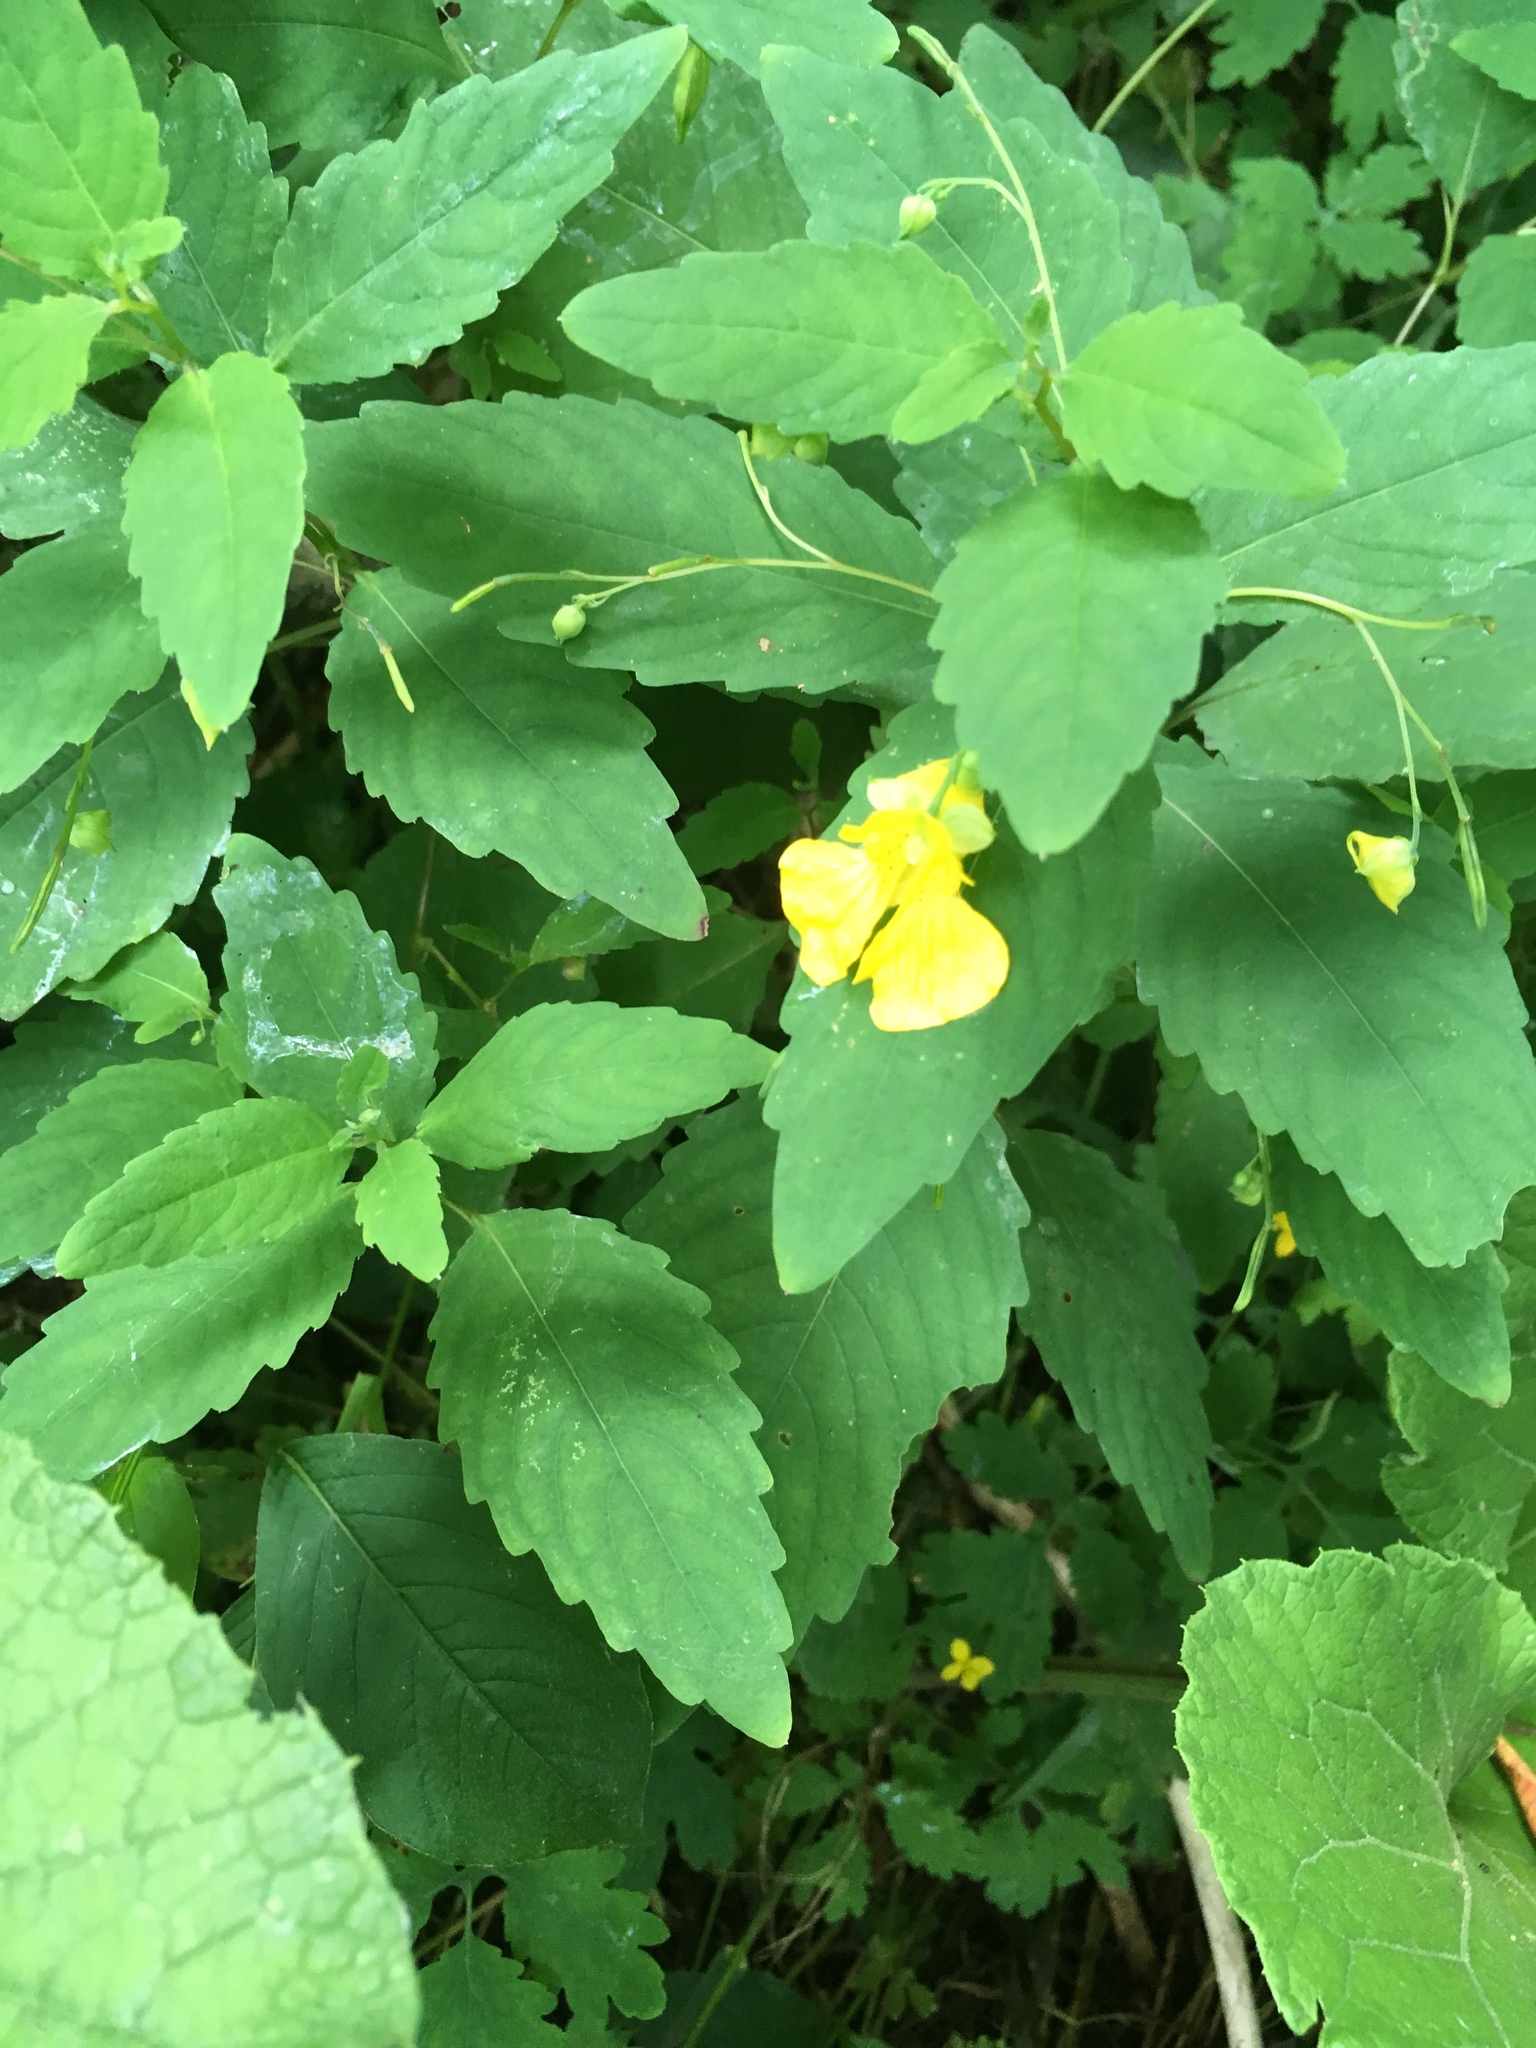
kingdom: Plantae
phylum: Tracheophyta
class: Magnoliopsida
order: Ericales
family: Balsaminaceae
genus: Impatiens
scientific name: Impatiens pallida
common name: Pale snapweed
